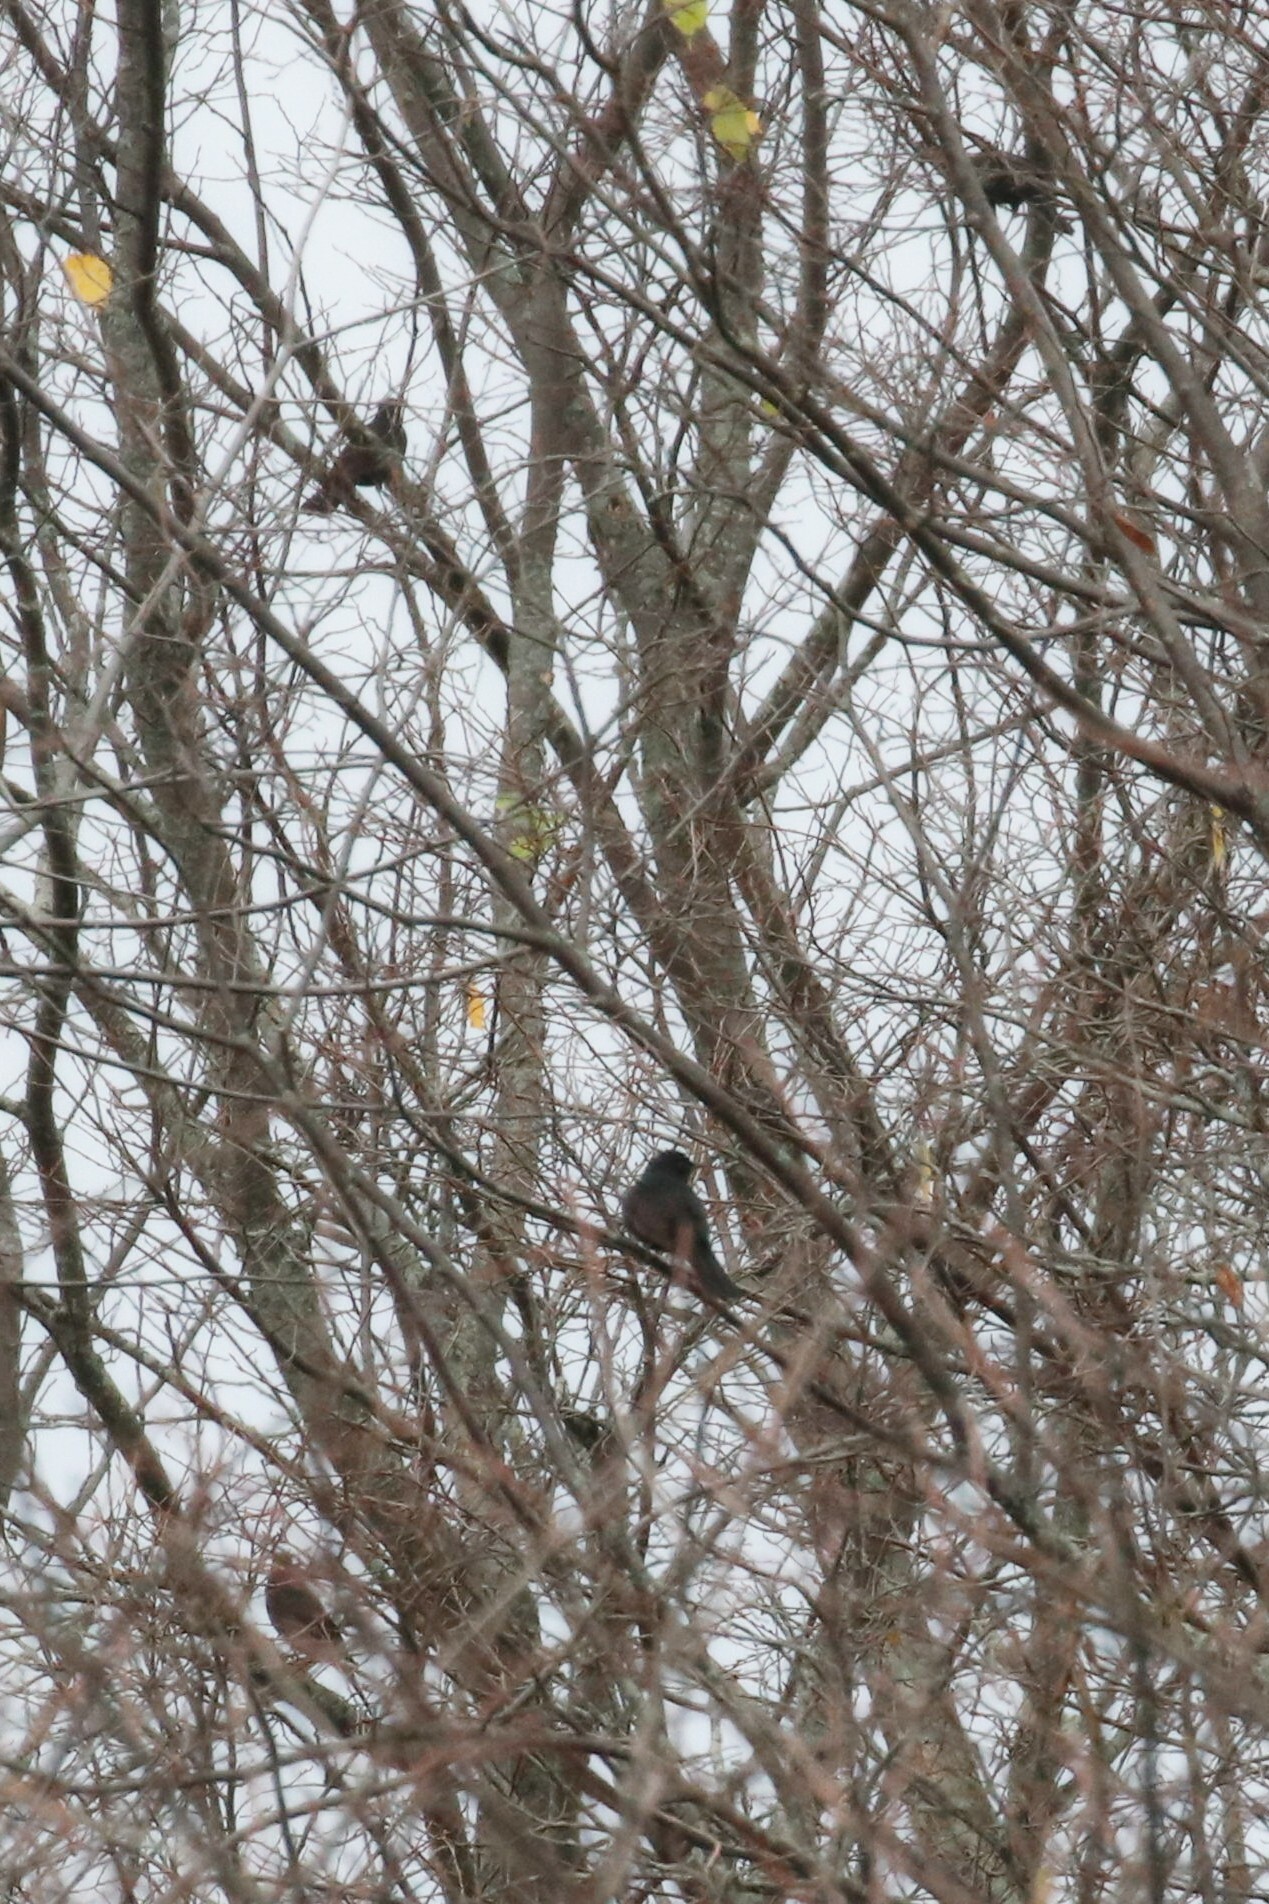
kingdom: Animalia
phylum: Chordata
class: Aves
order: Passeriformes
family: Turdidae
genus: Turdus
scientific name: Turdus merula
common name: Common blackbird
